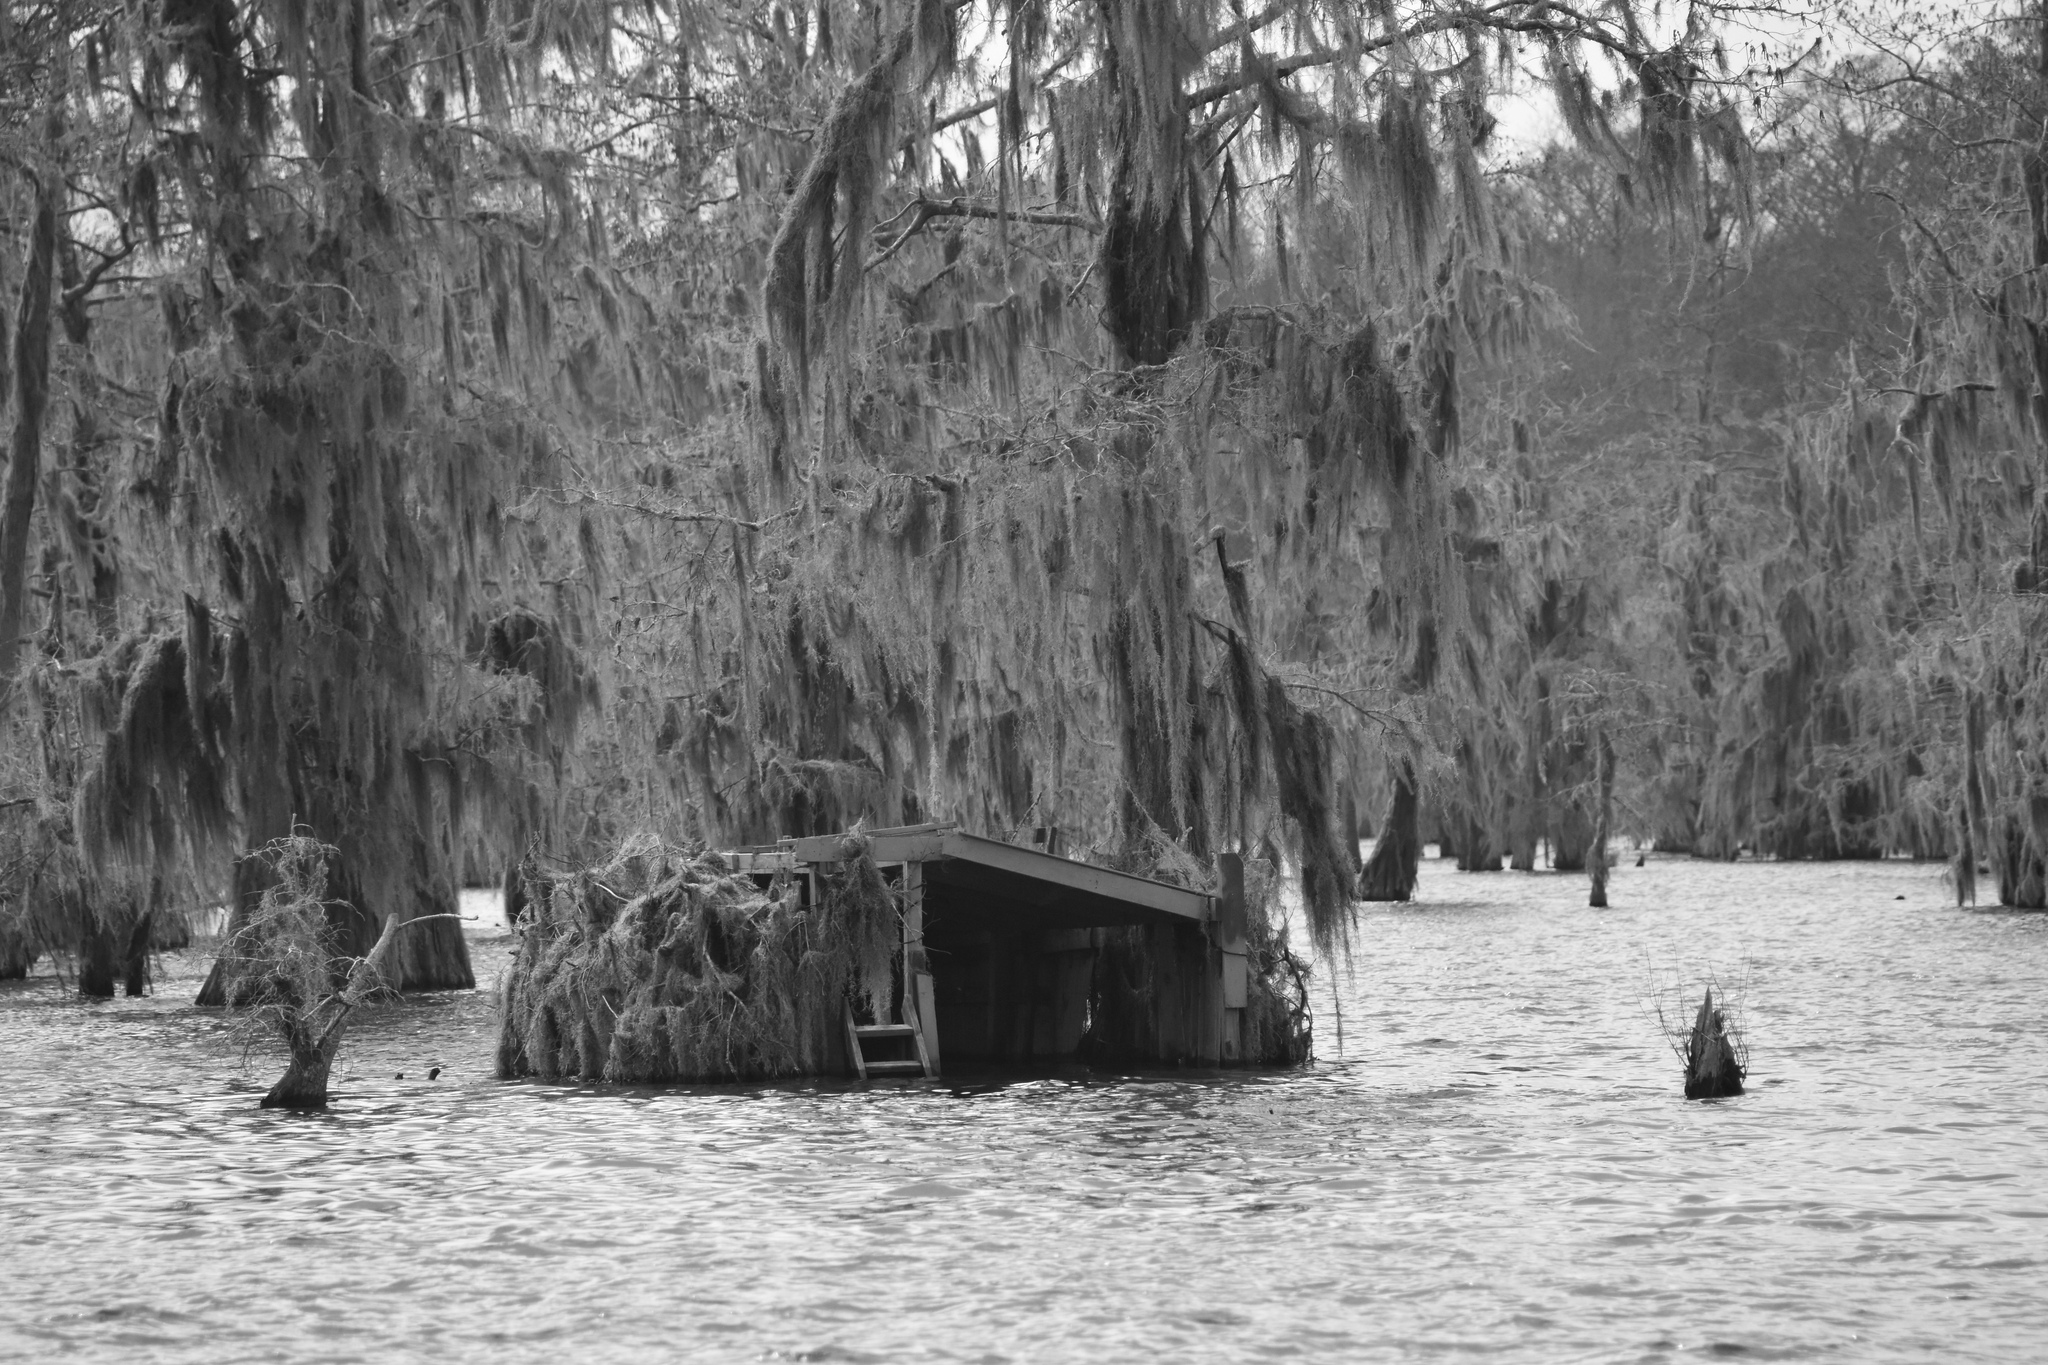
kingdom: Plantae
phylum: Tracheophyta
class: Liliopsida
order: Poales
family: Bromeliaceae
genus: Tillandsia
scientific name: Tillandsia usneoides
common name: Spanish moss
